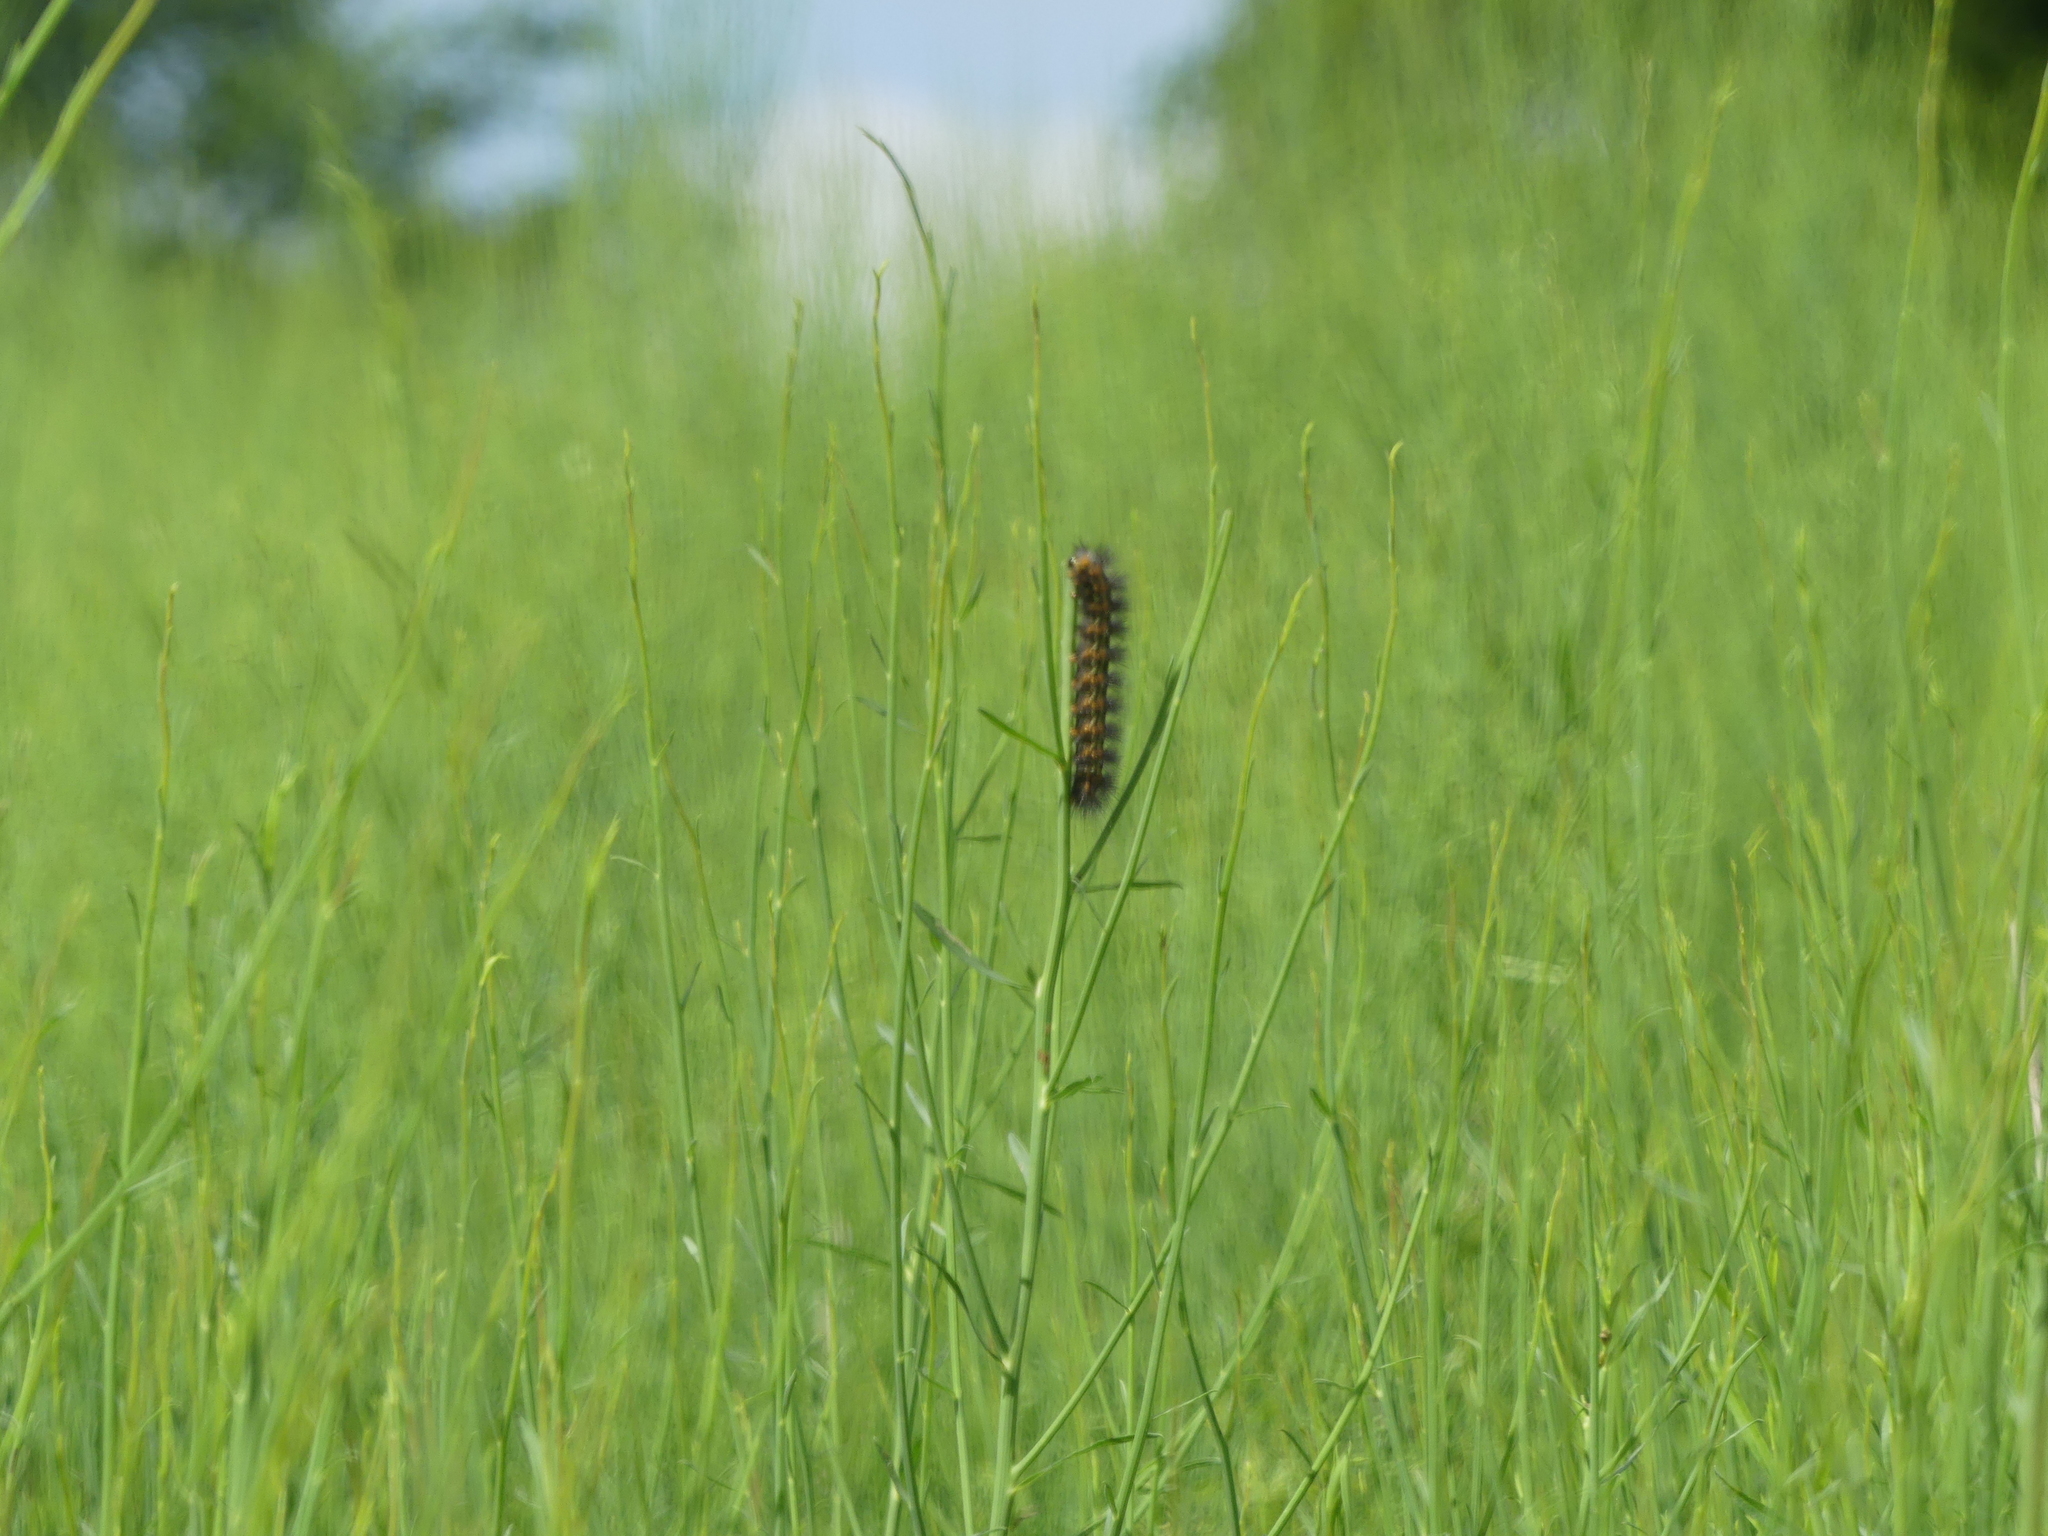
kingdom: Animalia
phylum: Arthropoda
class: Insecta
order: Lepidoptera
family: Erebidae
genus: Estigmene
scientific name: Estigmene acrea
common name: Salt marsh moth
